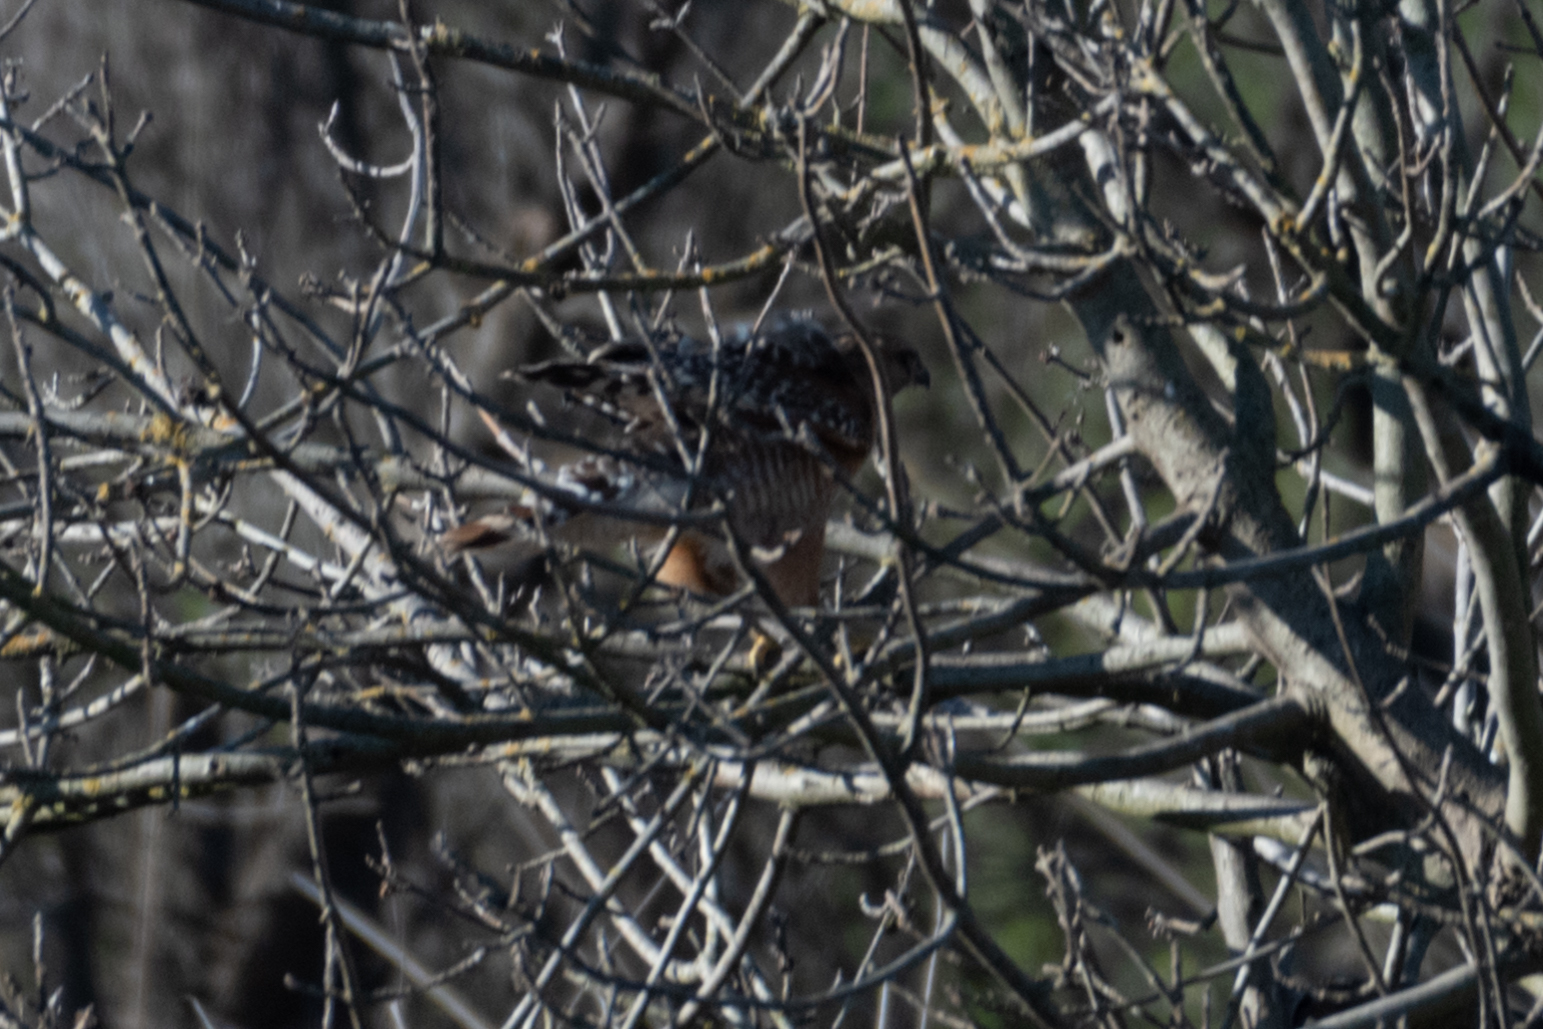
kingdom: Animalia
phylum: Chordata
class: Aves
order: Accipitriformes
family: Accipitridae
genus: Buteo
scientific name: Buteo lineatus
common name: Red-shouldered hawk
